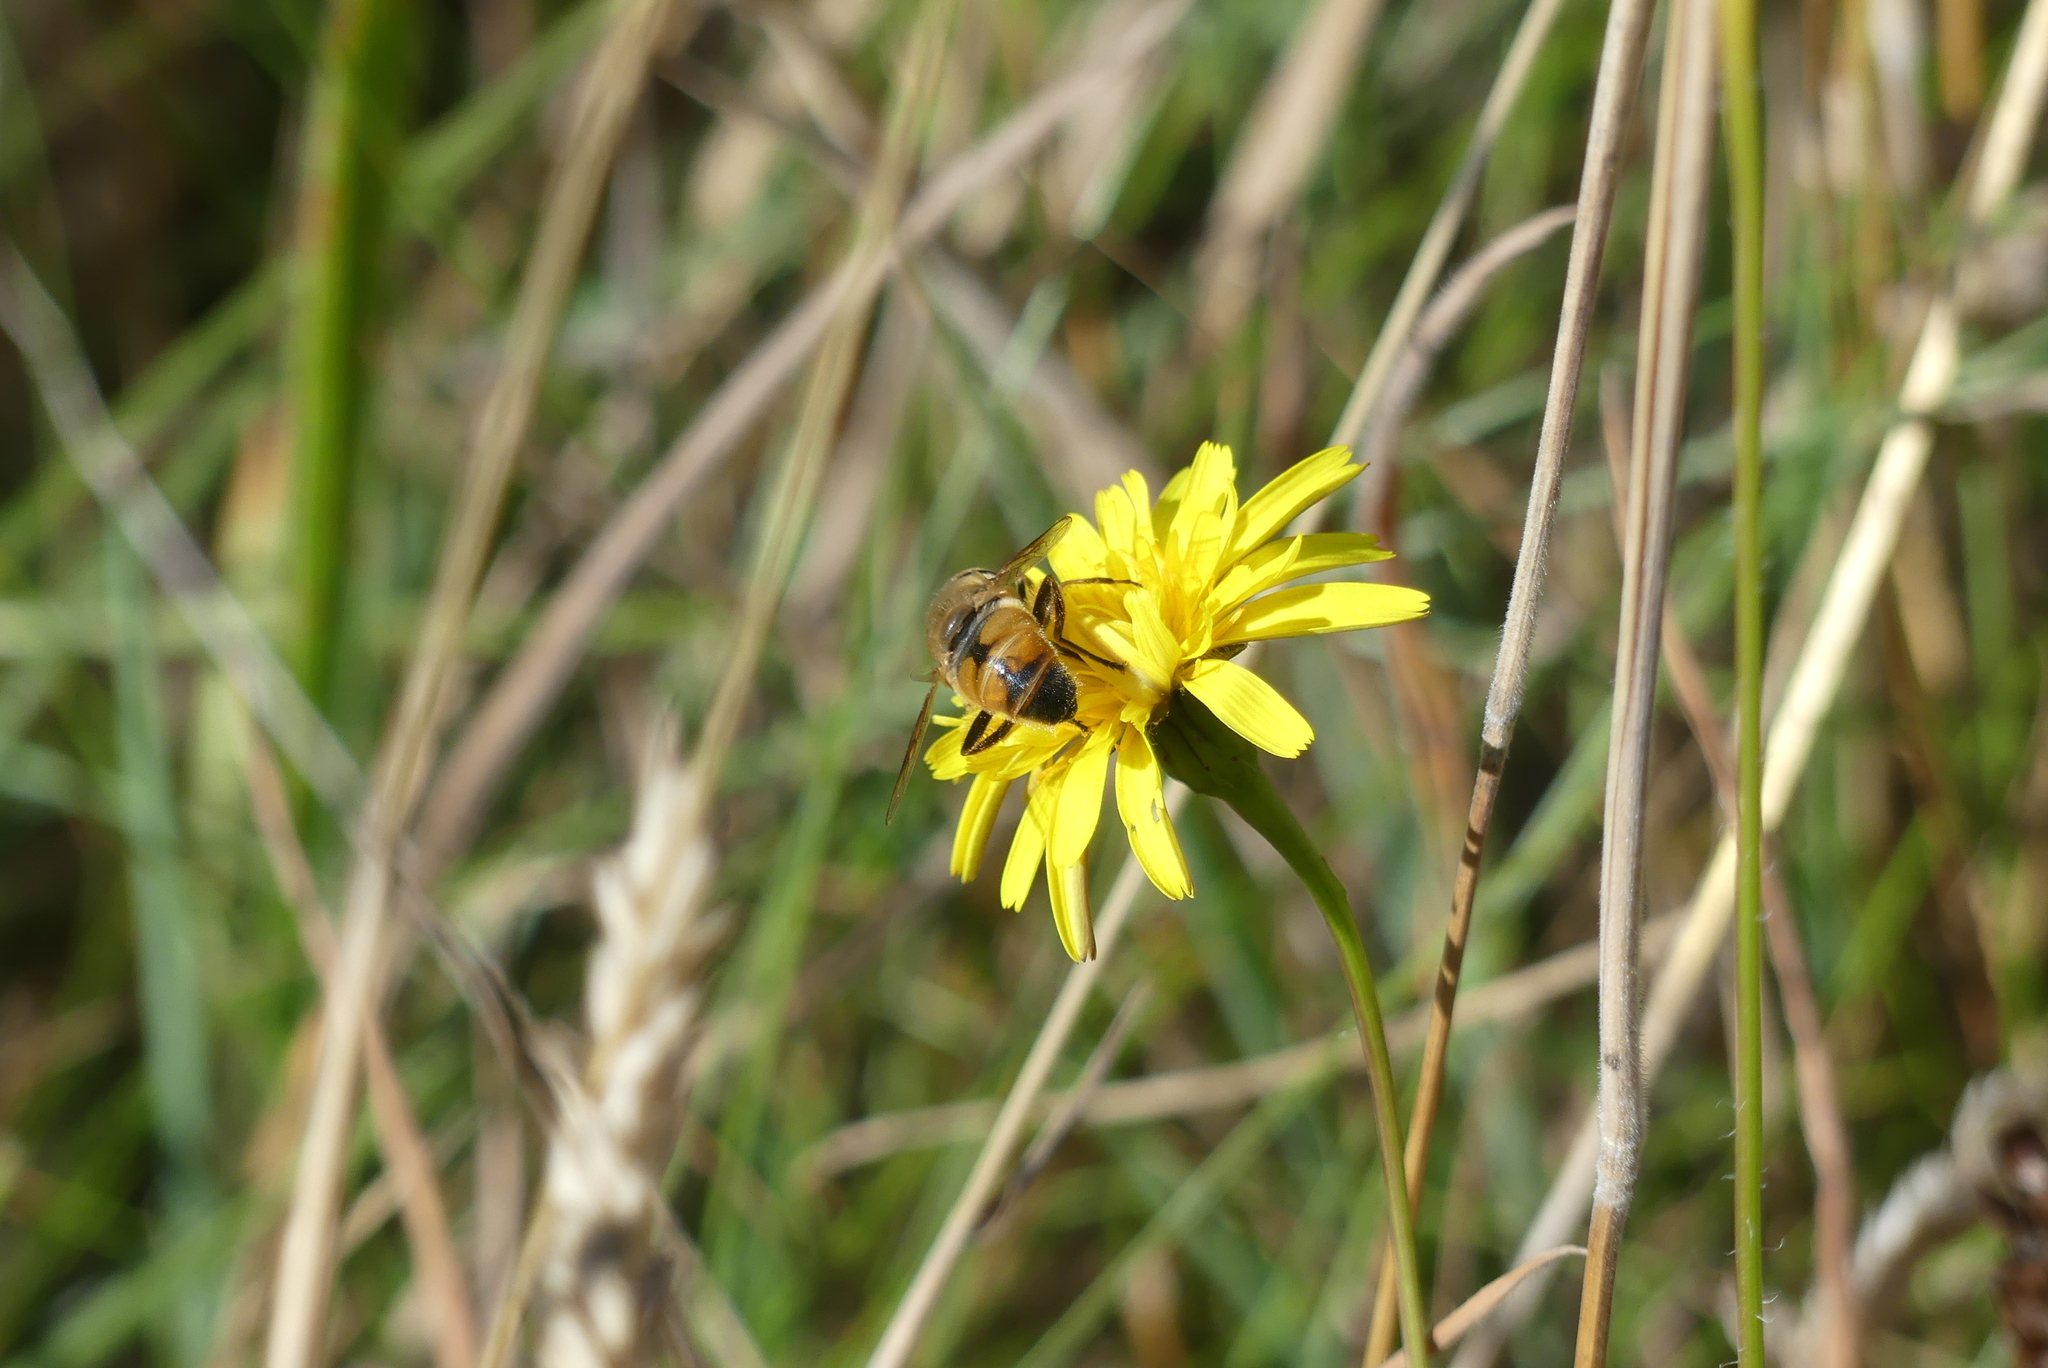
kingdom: Animalia
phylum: Arthropoda
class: Insecta
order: Diptera
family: Syrphidae
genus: Eristalis
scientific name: Eristalis tenax
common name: Drone fly
